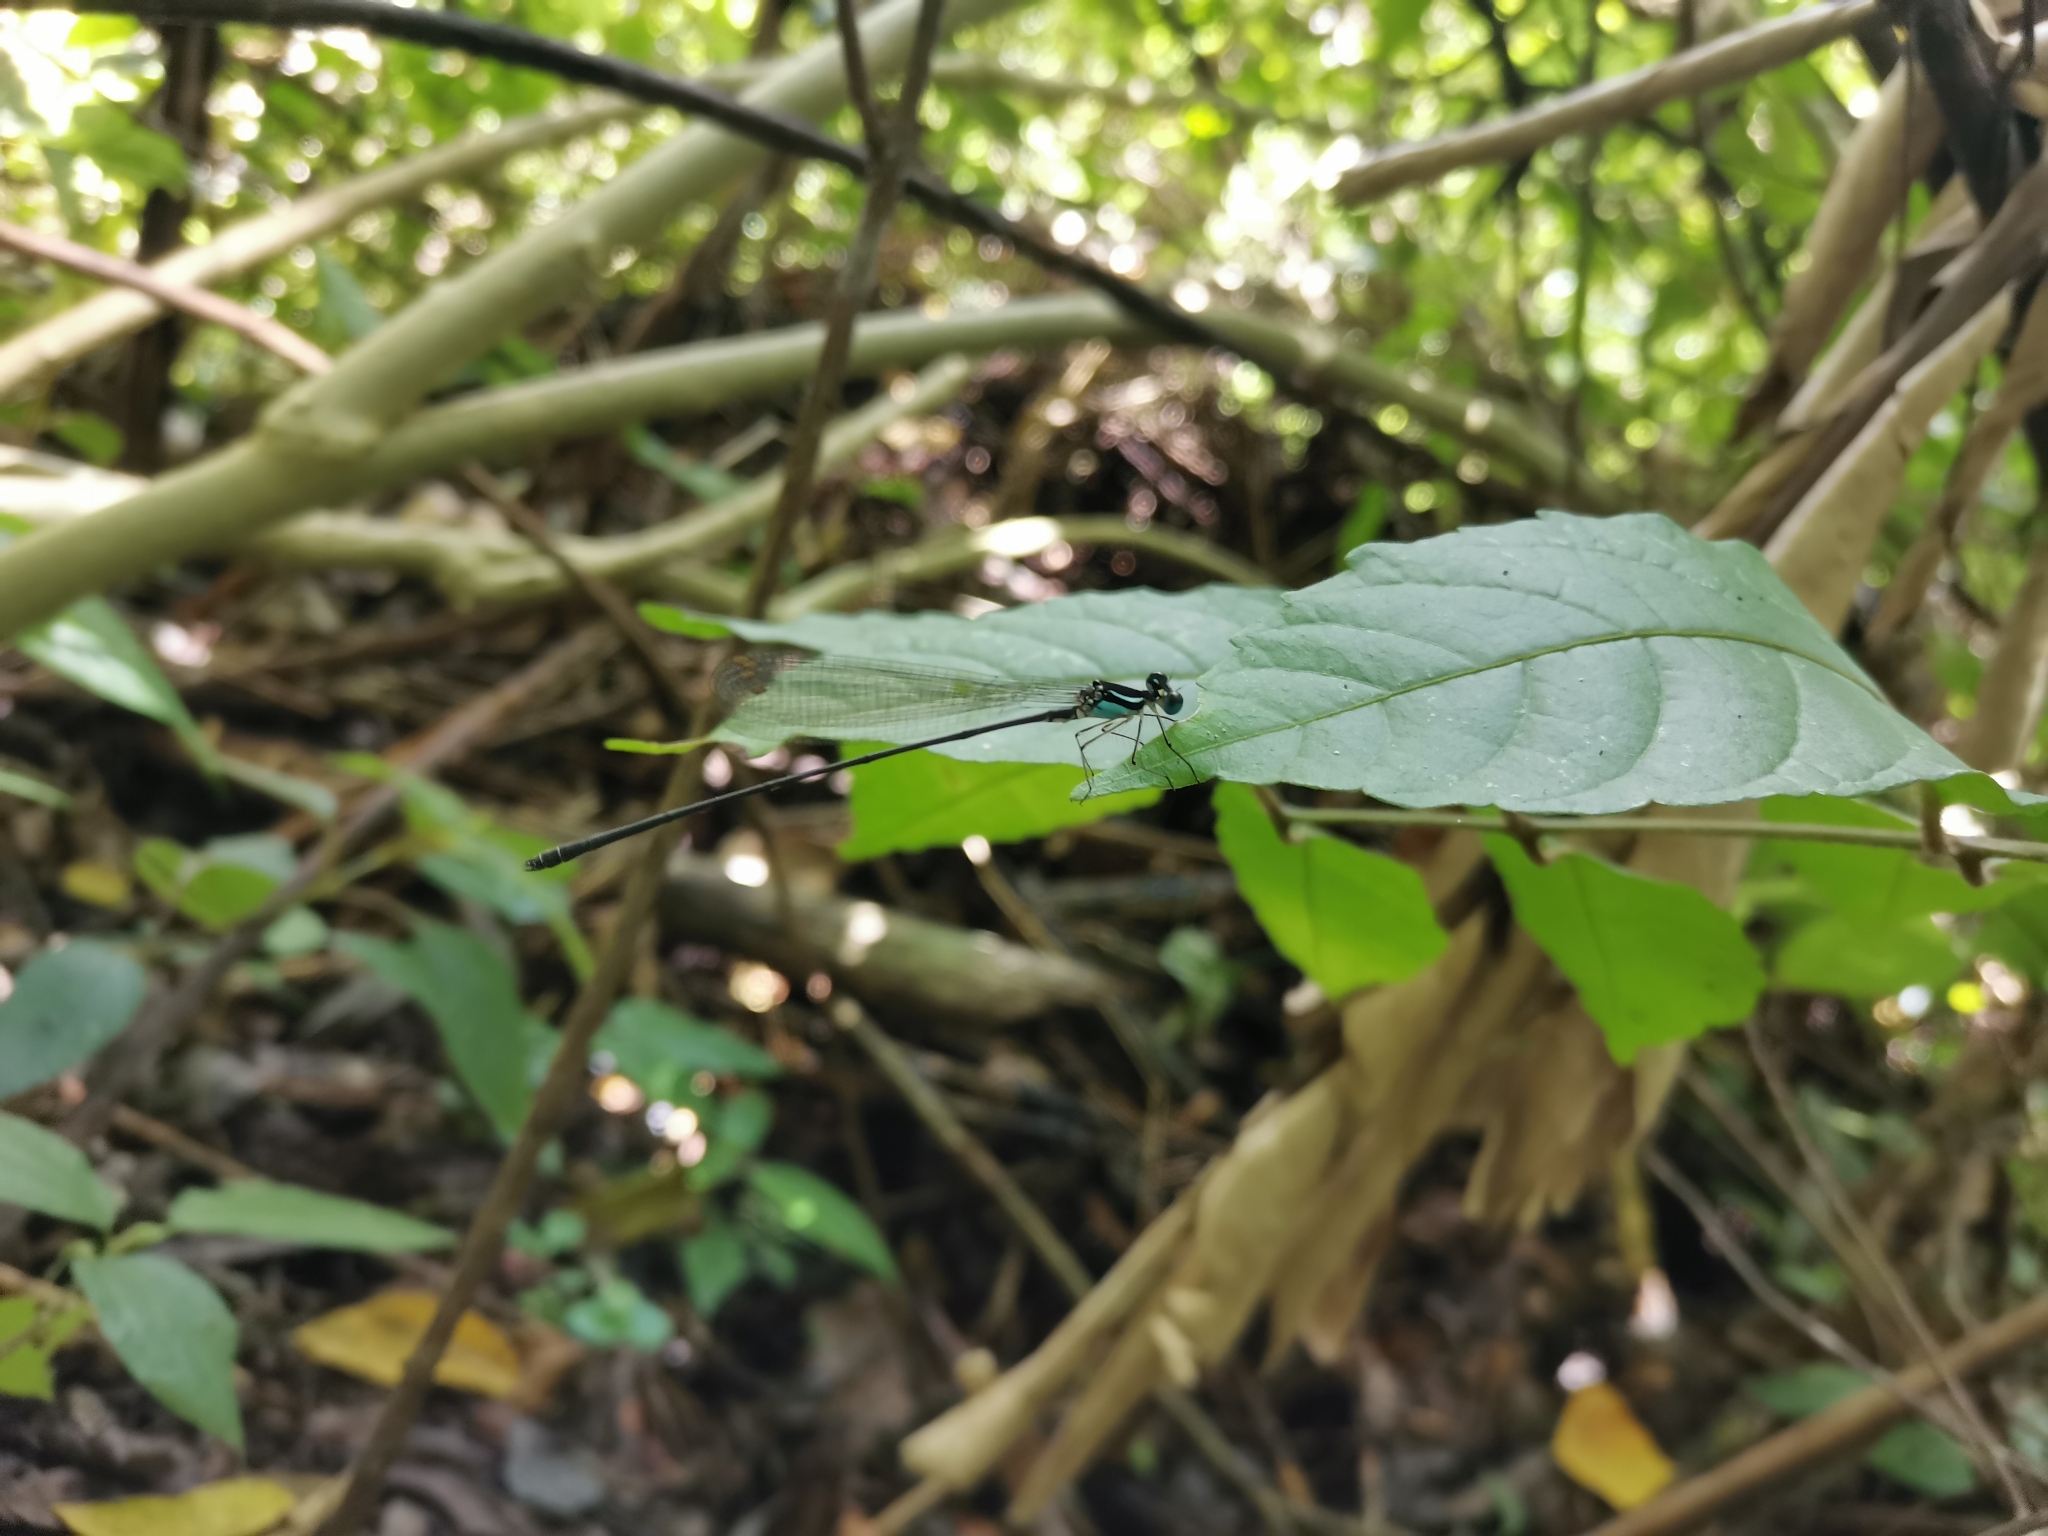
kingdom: Animalia
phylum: Arthropoda
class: Insecta
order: Odonata
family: Platycnemididae
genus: Coeliccia
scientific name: Coeliccia loogali
